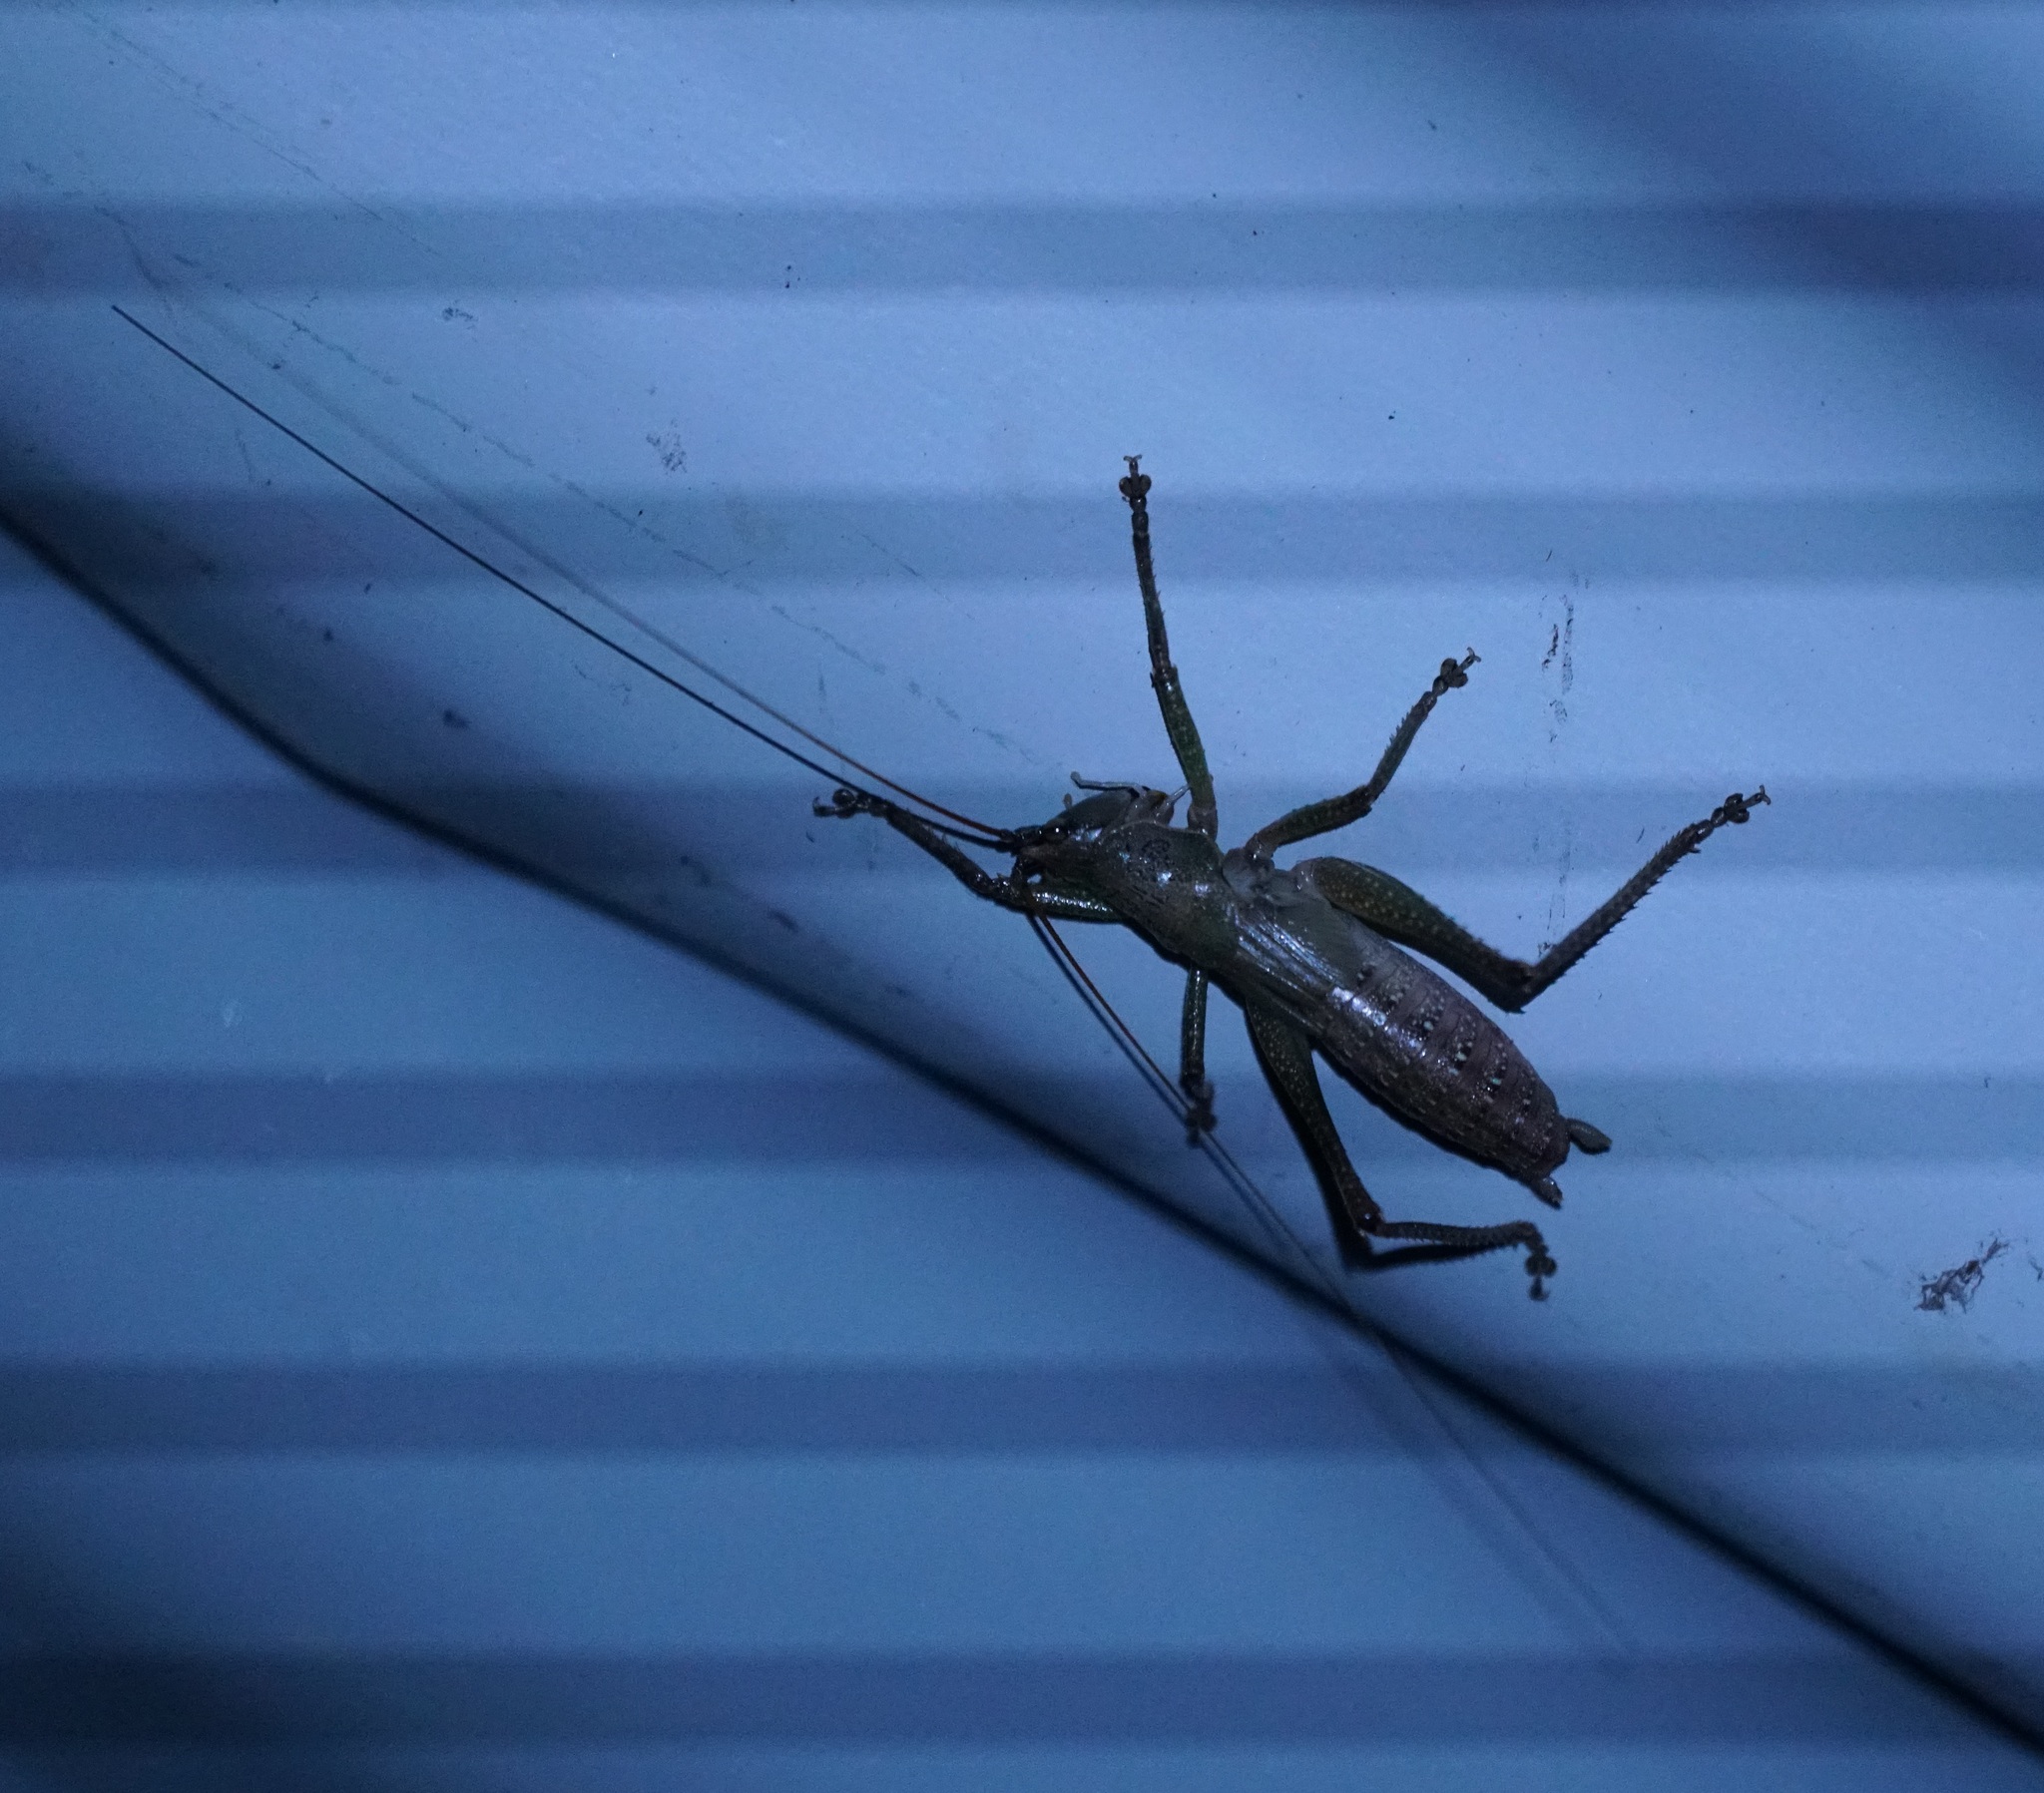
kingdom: Animalia
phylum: Arthropoda
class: Insecta
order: Orthoptera
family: Tettigoniidae
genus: Austrosalomona
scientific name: Austrosalomona falcata
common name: Olive-green coastal katydid
